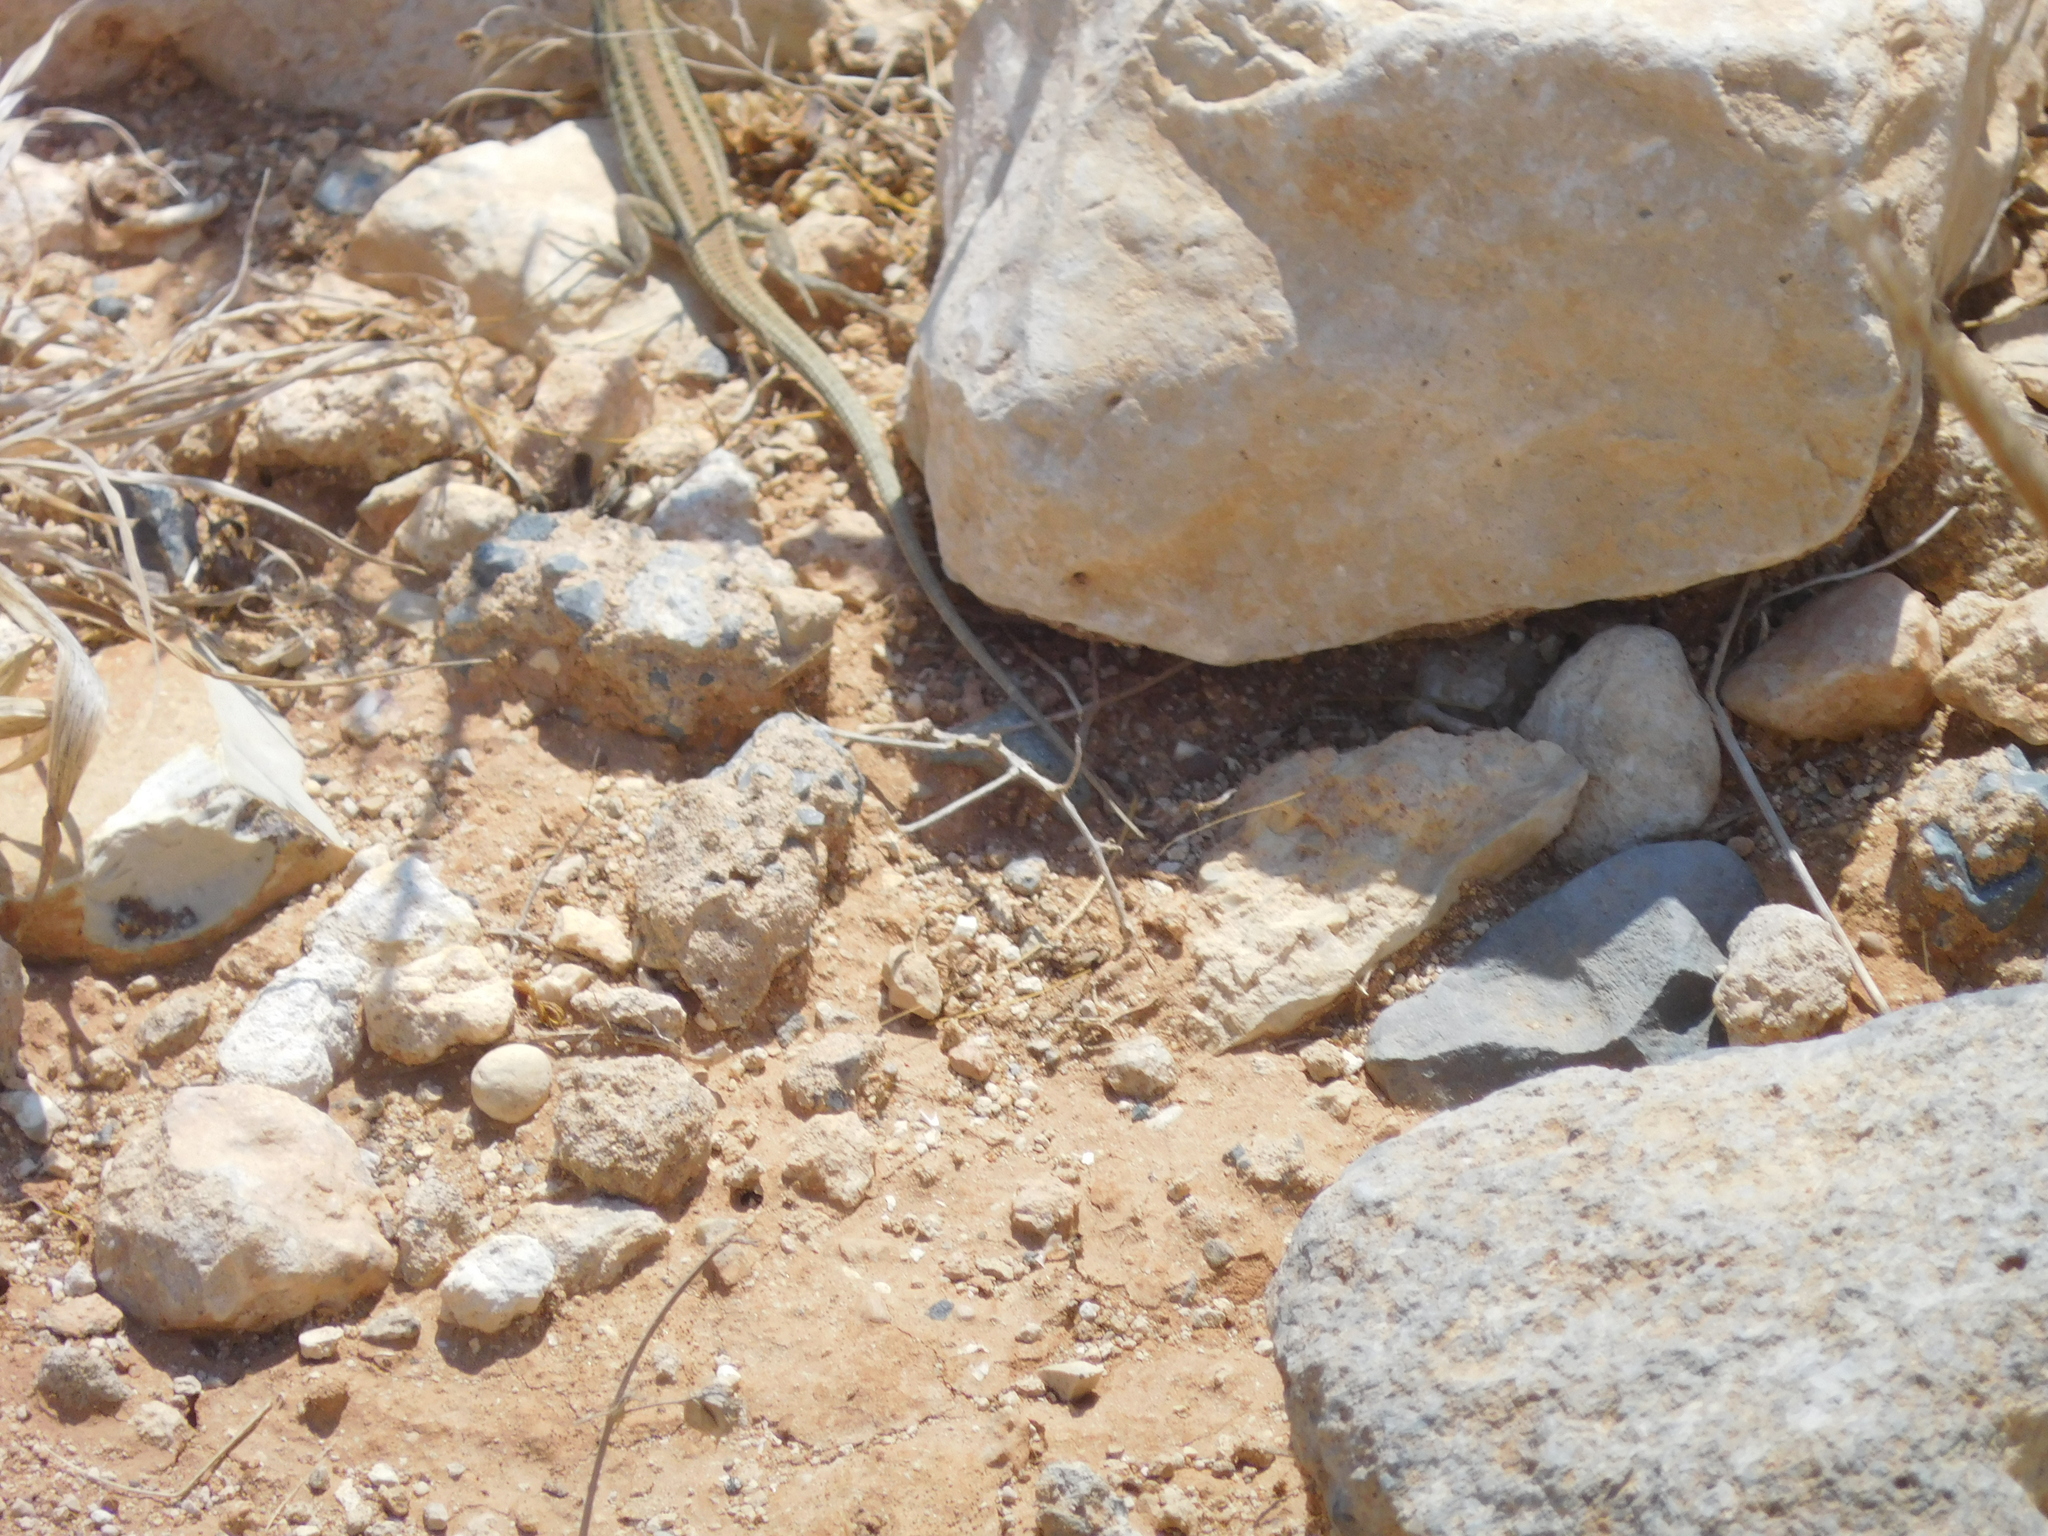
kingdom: Animalia
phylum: Chordata
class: Squamata
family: Lacertidae
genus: Ophisops
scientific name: Ophisops elegans
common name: Snake-eyed lizard
